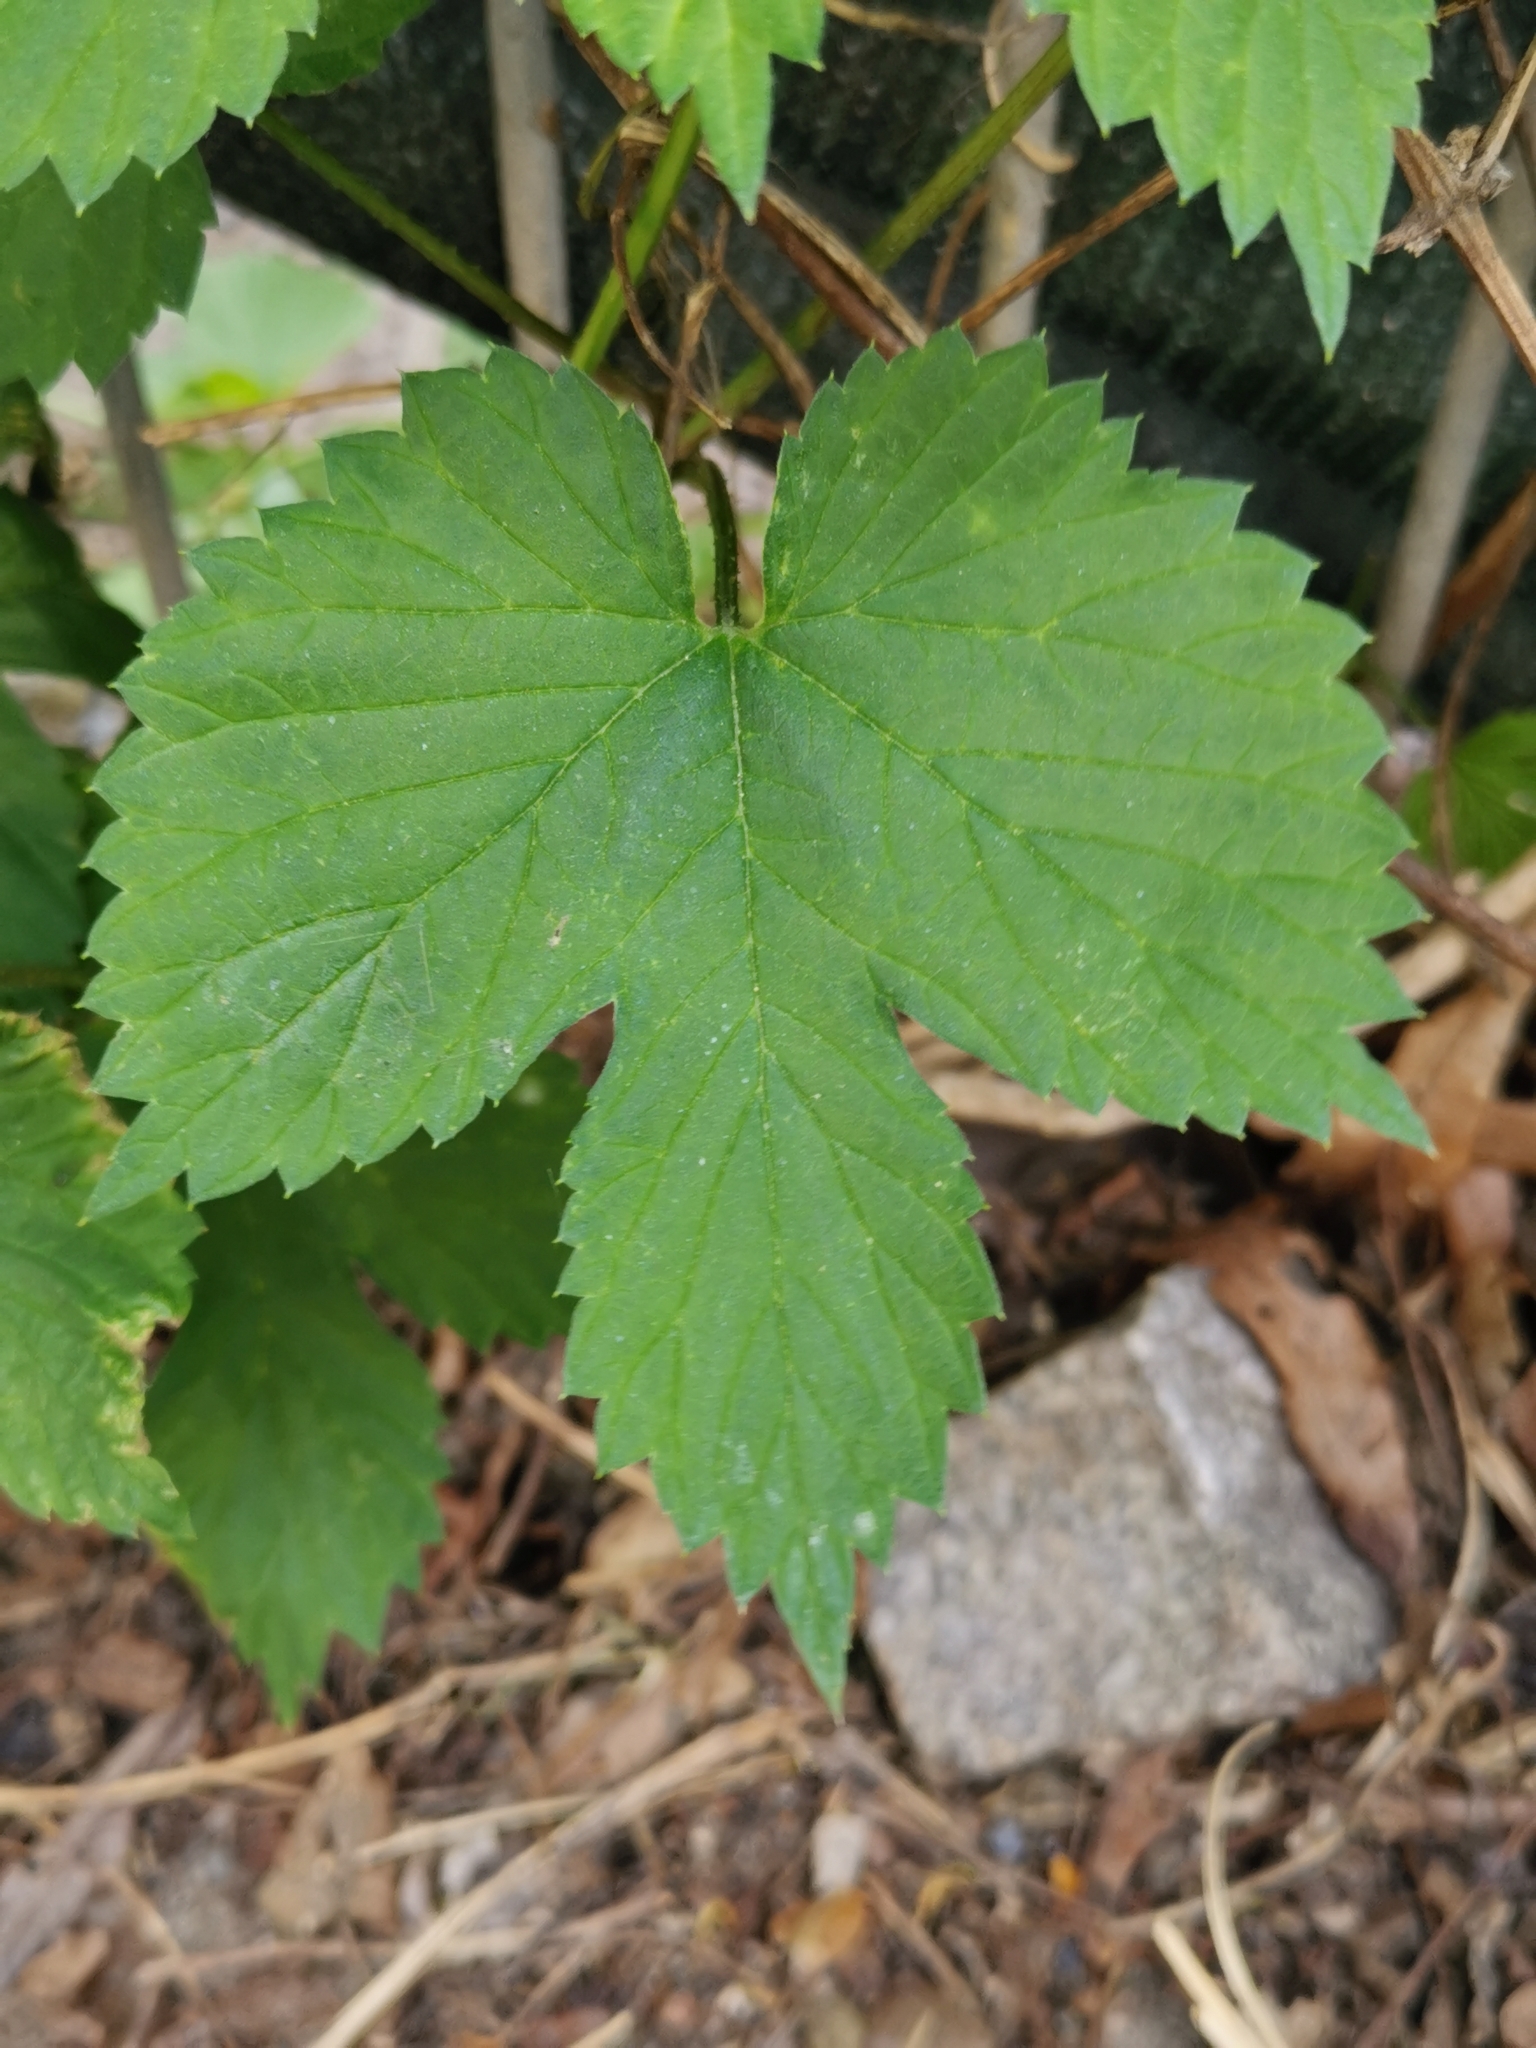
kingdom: Plantae
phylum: Tracheophyta
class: Magnoliopsida
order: Rosales
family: Cannabaceae
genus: Humulus
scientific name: Humulus lupulus
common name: Hop
